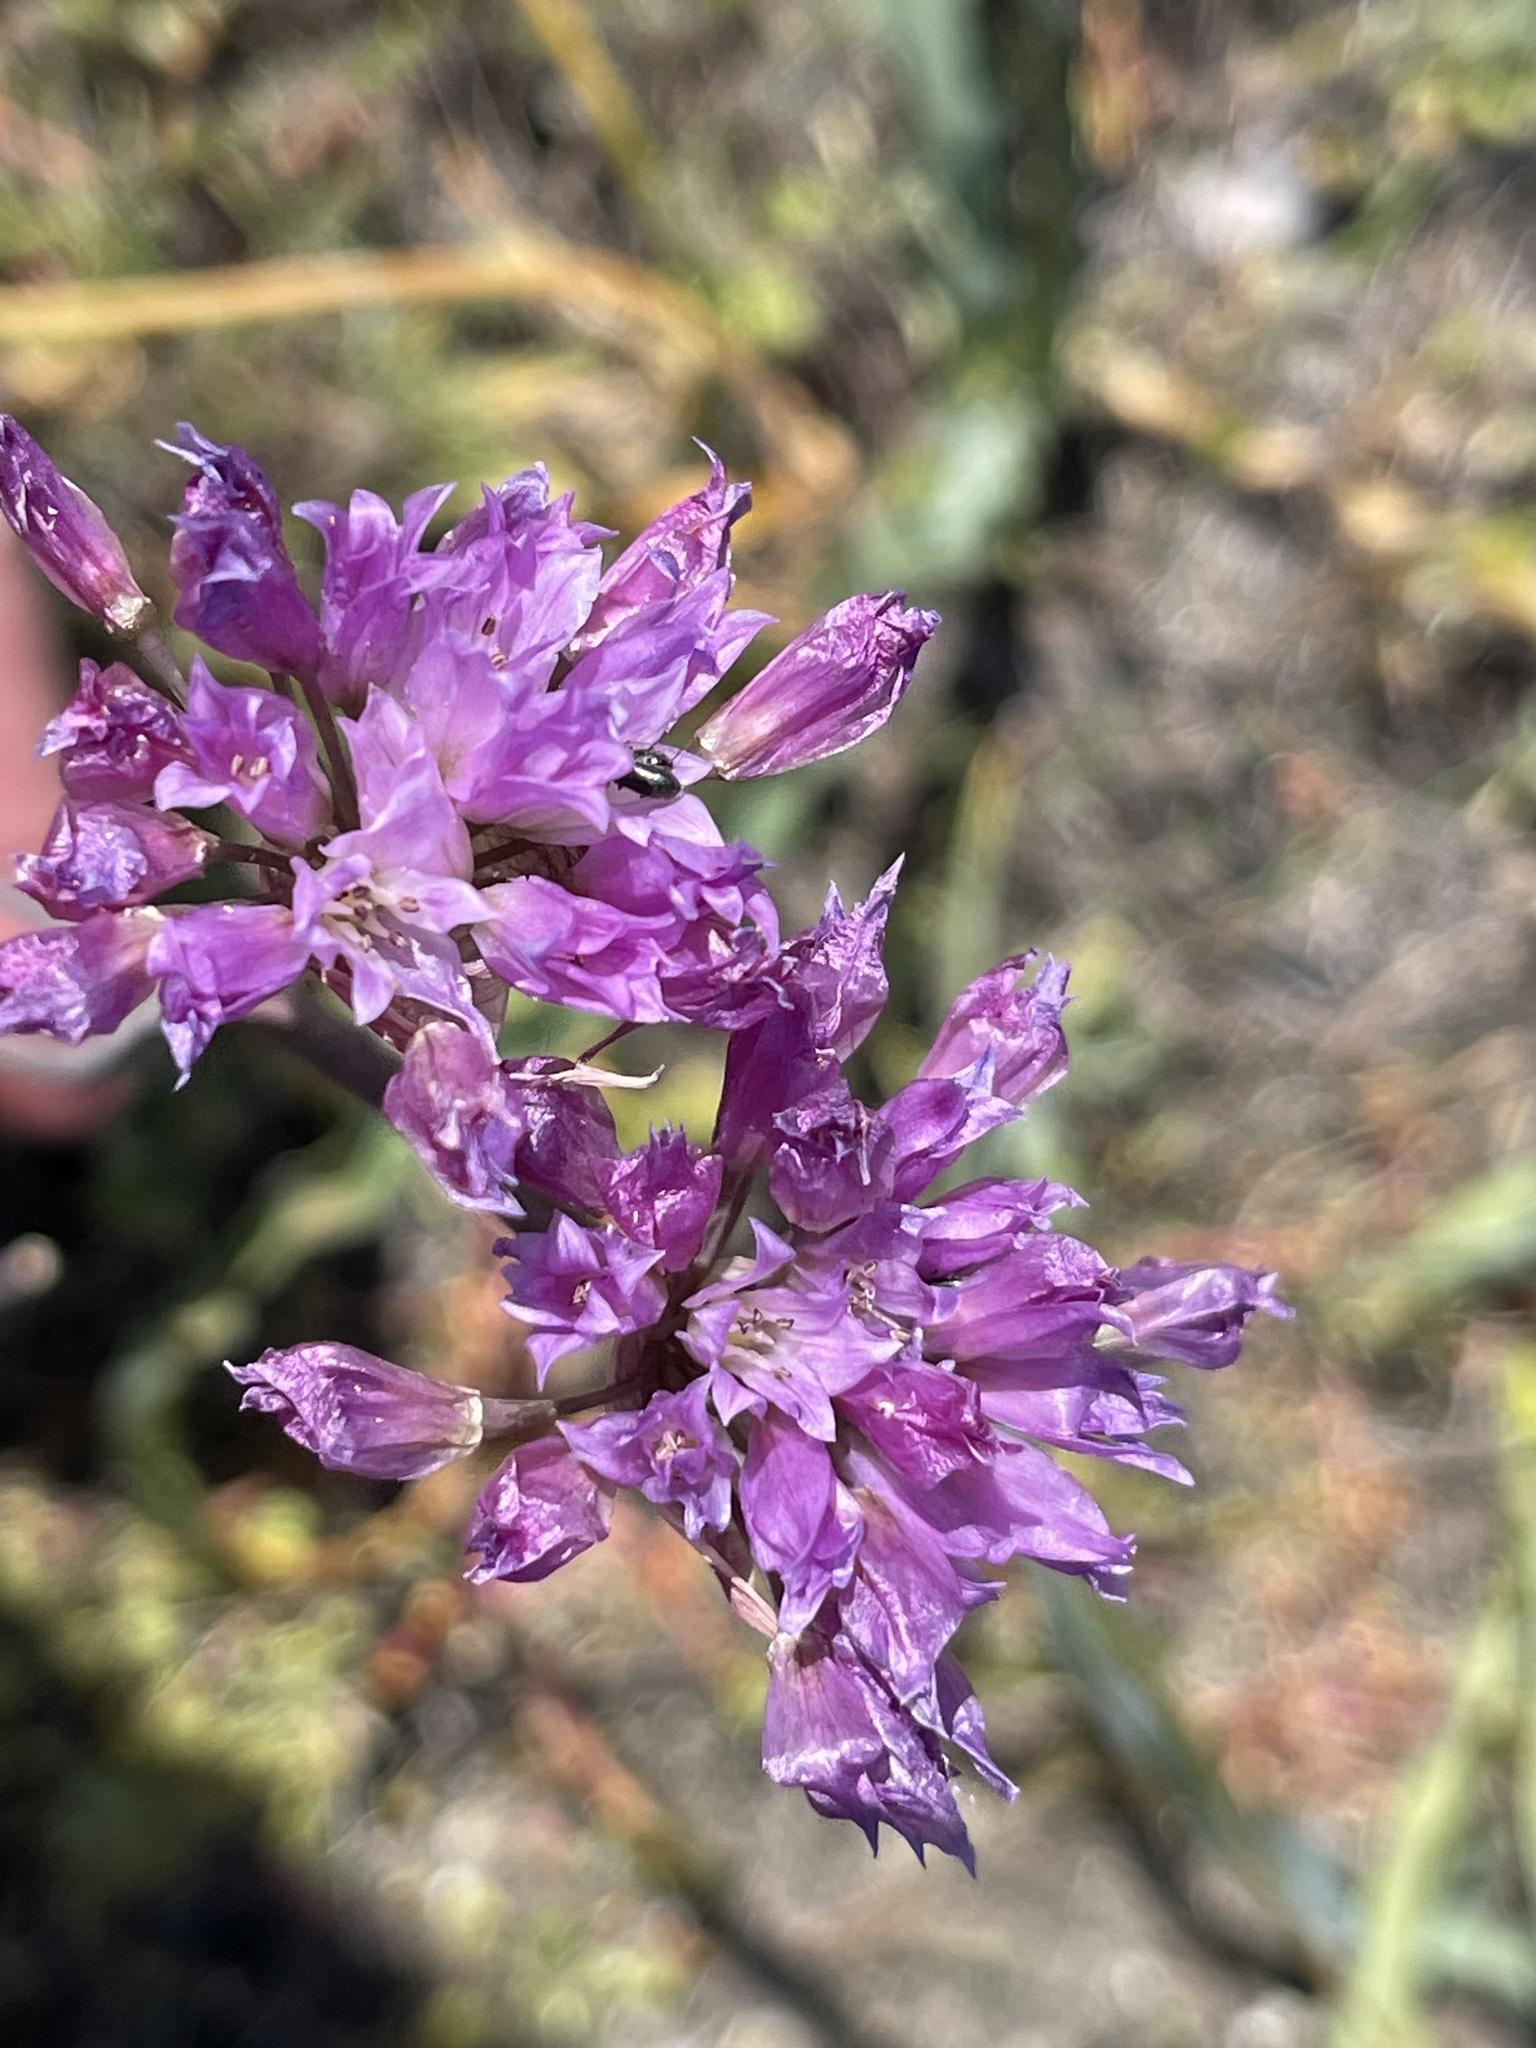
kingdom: Plantae
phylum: Tracheophyta
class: Liliopsida
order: Asparagales
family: Amaryllidaceae
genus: Allium
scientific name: Allium serra
